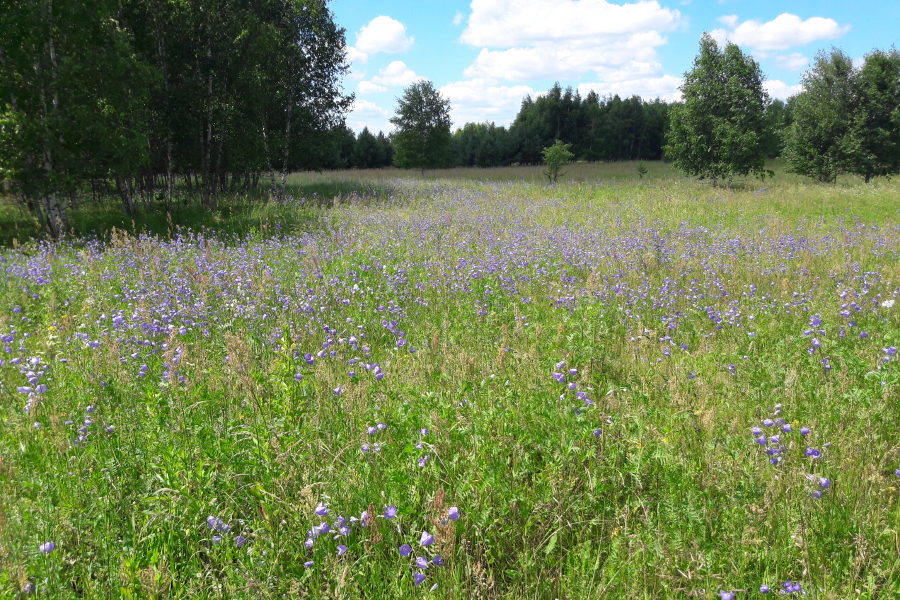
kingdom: Plantae
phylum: Tracheophyta
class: Magnoliopsida
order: Asterales
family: Campanulaceae
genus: Campanula
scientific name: Campanula persicifolia
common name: Peach-leaved bellflower
